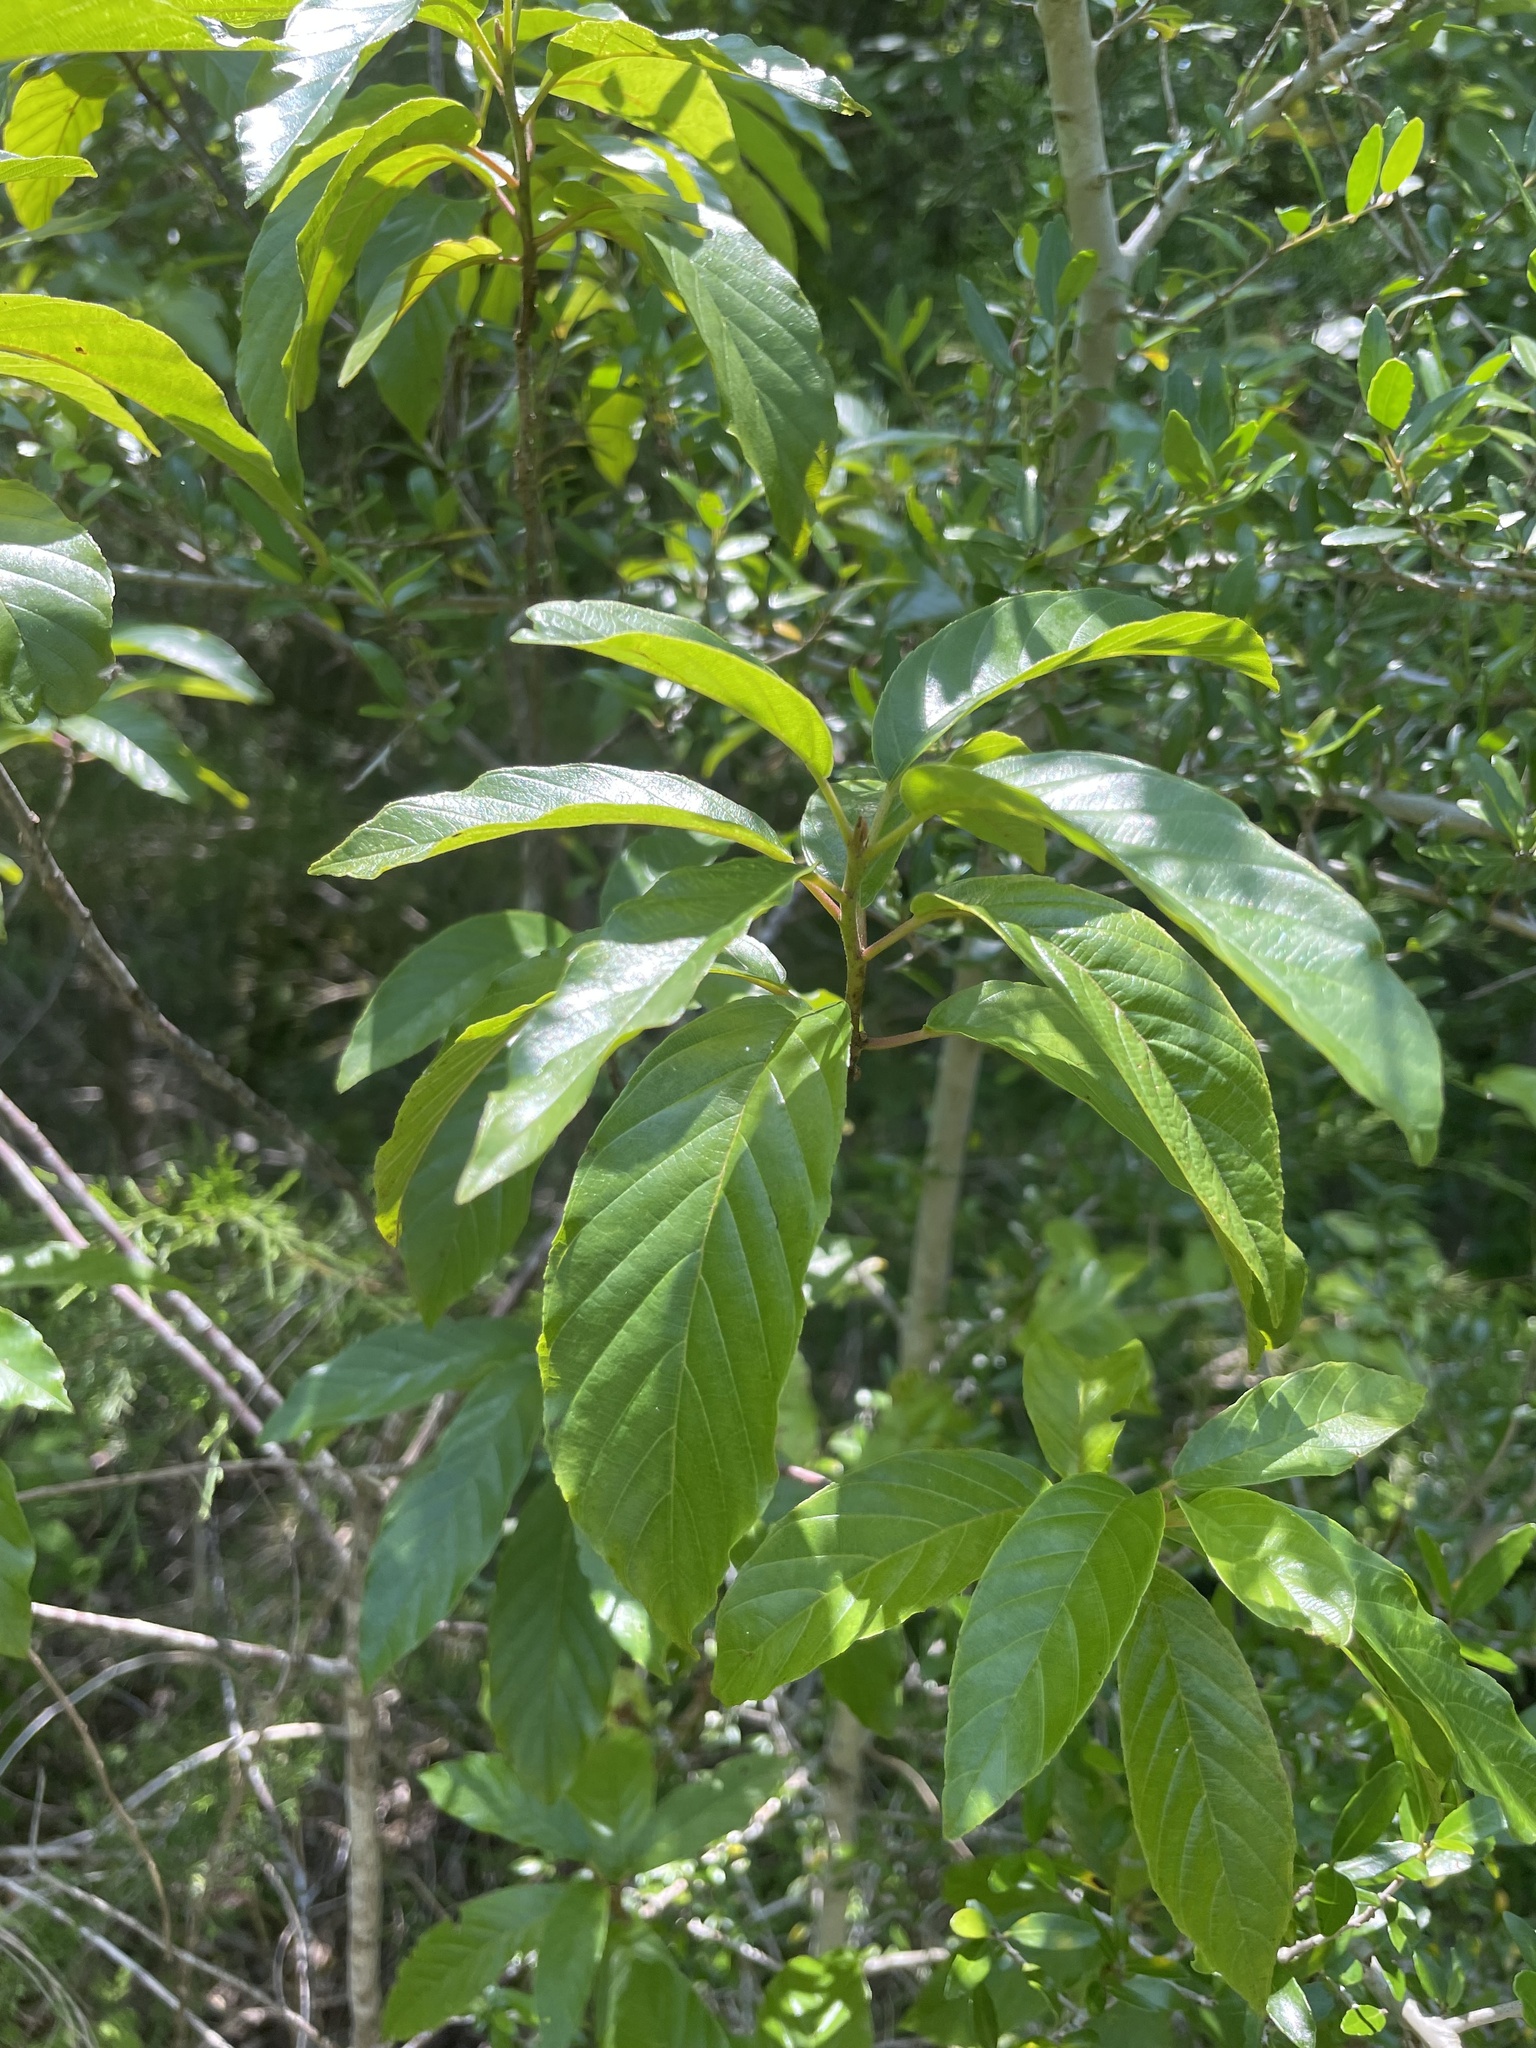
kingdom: Plantae
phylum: Tracheophyta
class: Magnoliopsida
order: Rosales
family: Rhamnaceae
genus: Frangula
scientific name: Frangula caroliniana
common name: Carolina buckthorn
